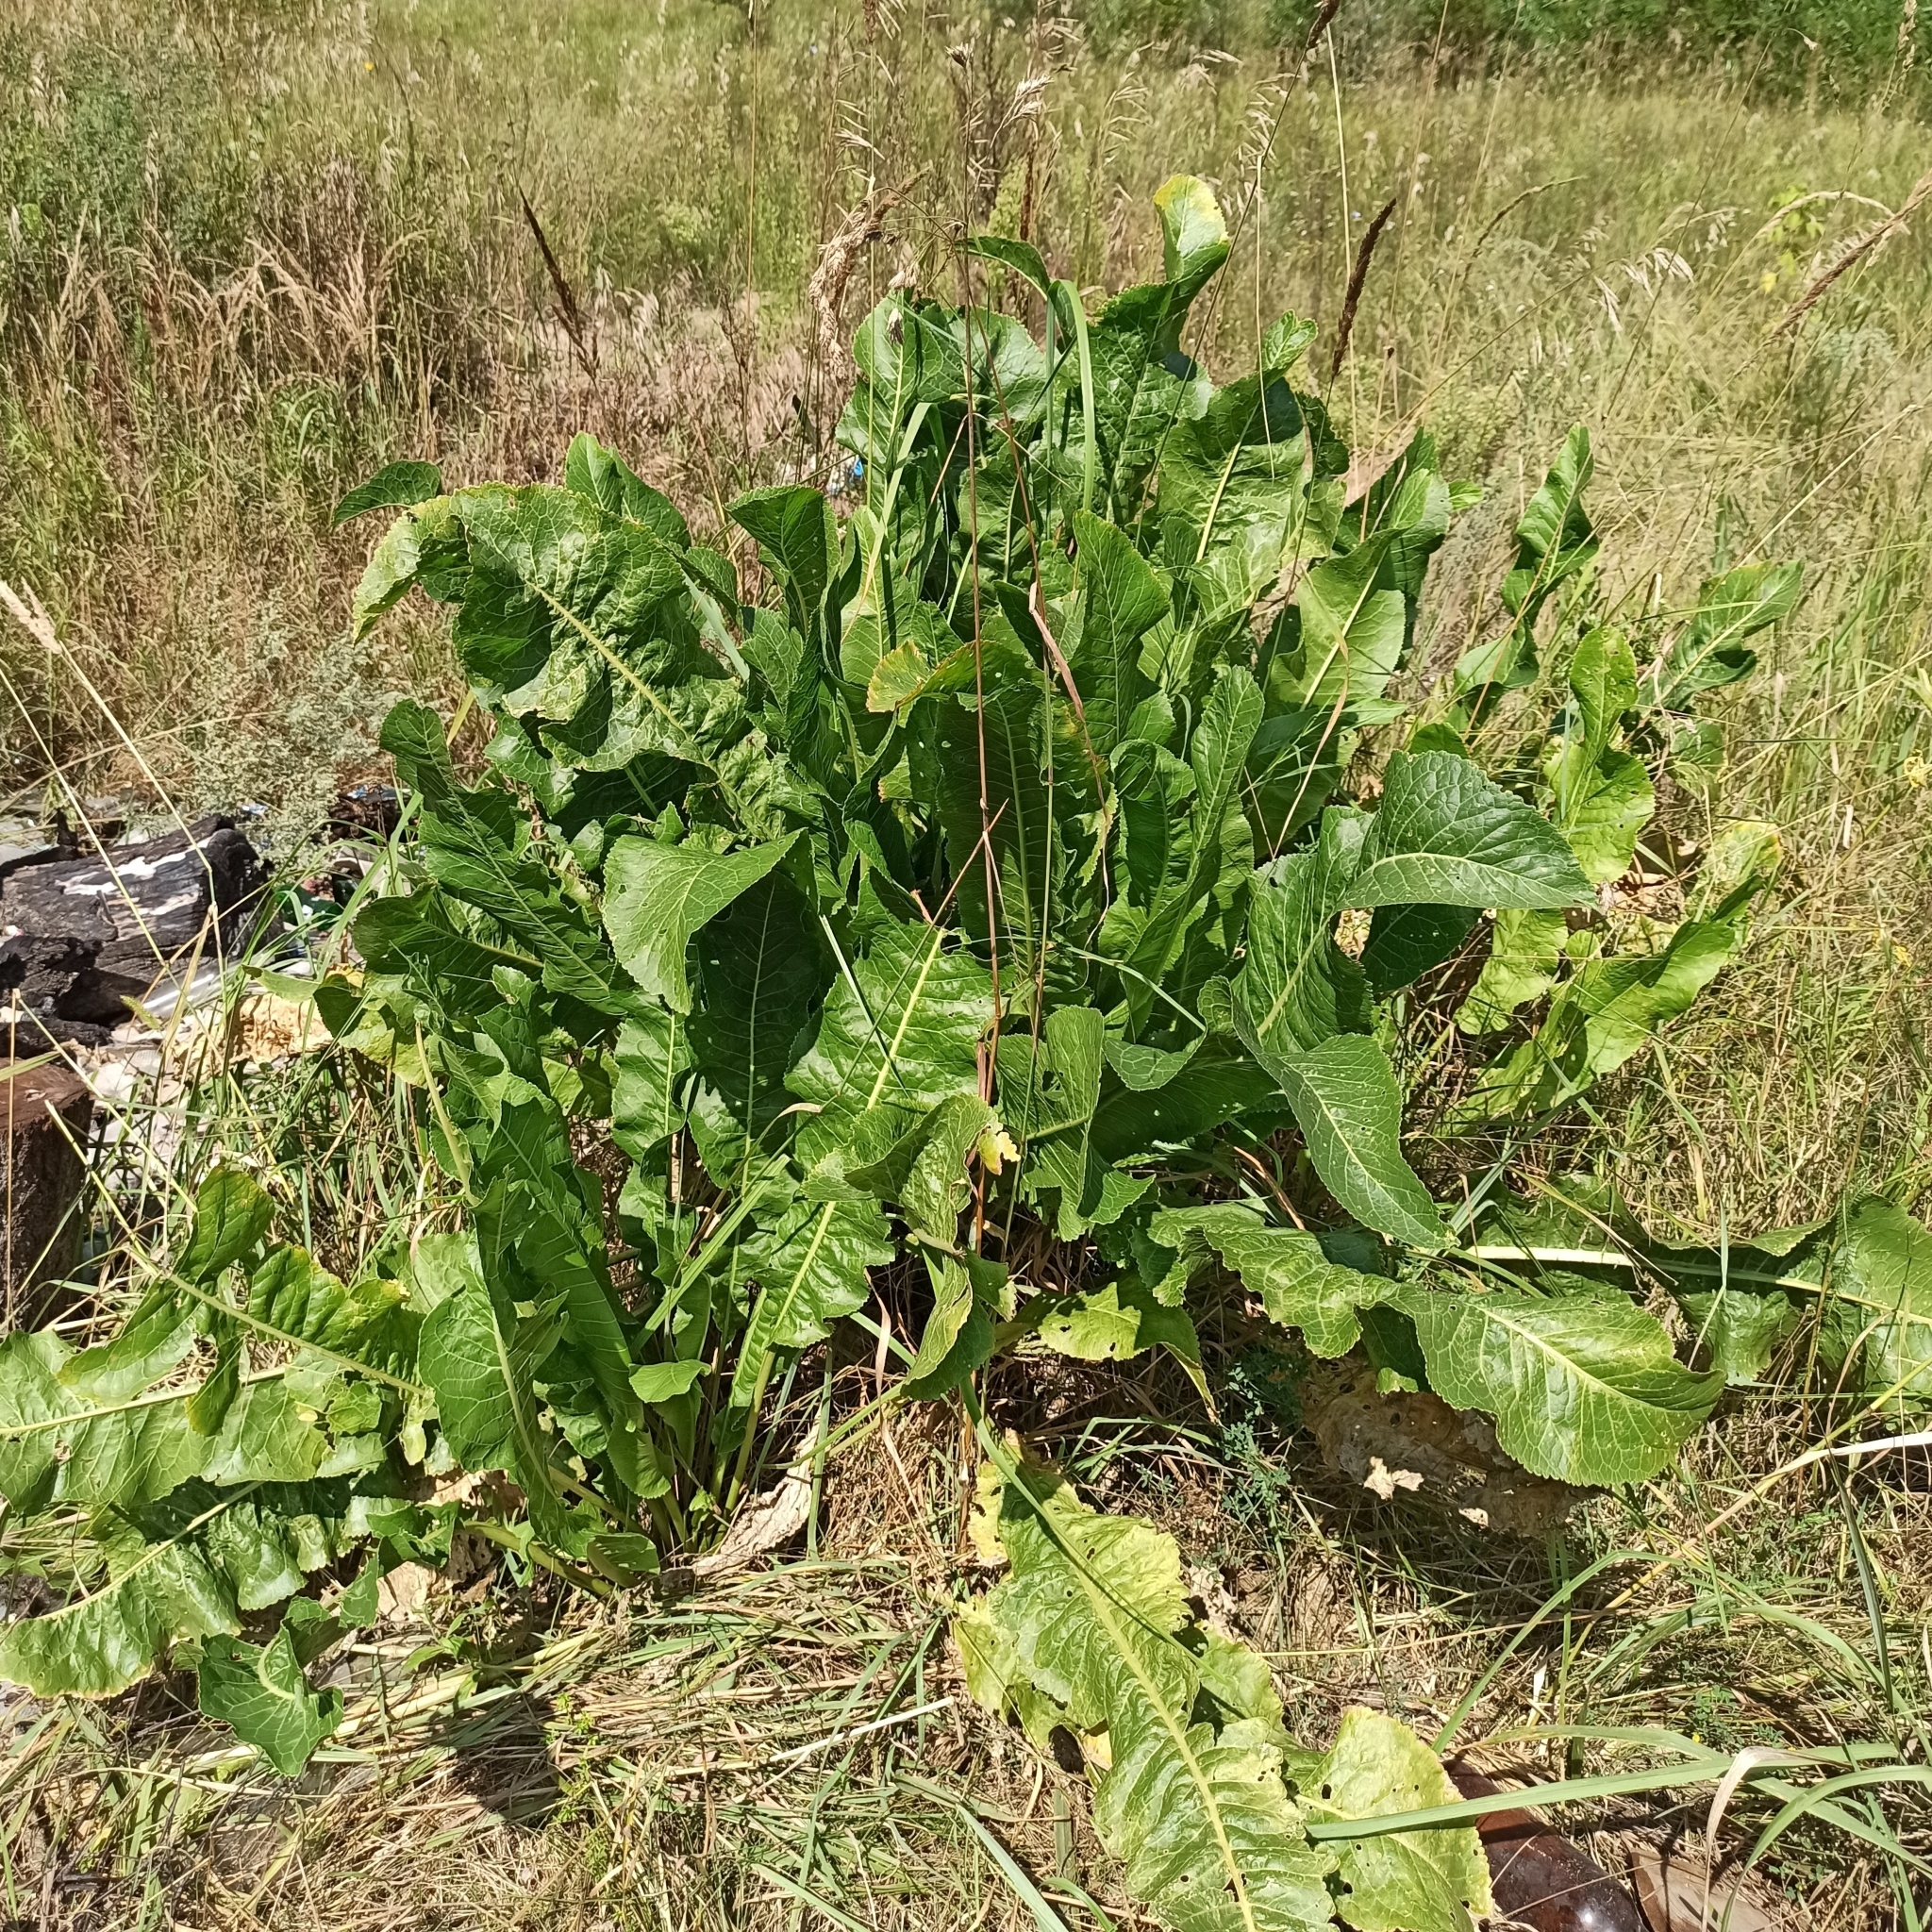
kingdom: Plantae
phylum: Tracheophyta
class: Magnoliopsida
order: Brassicales
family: Brassicaceae
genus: Armoracia
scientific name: Armoracia rusticana
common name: Horseradish
